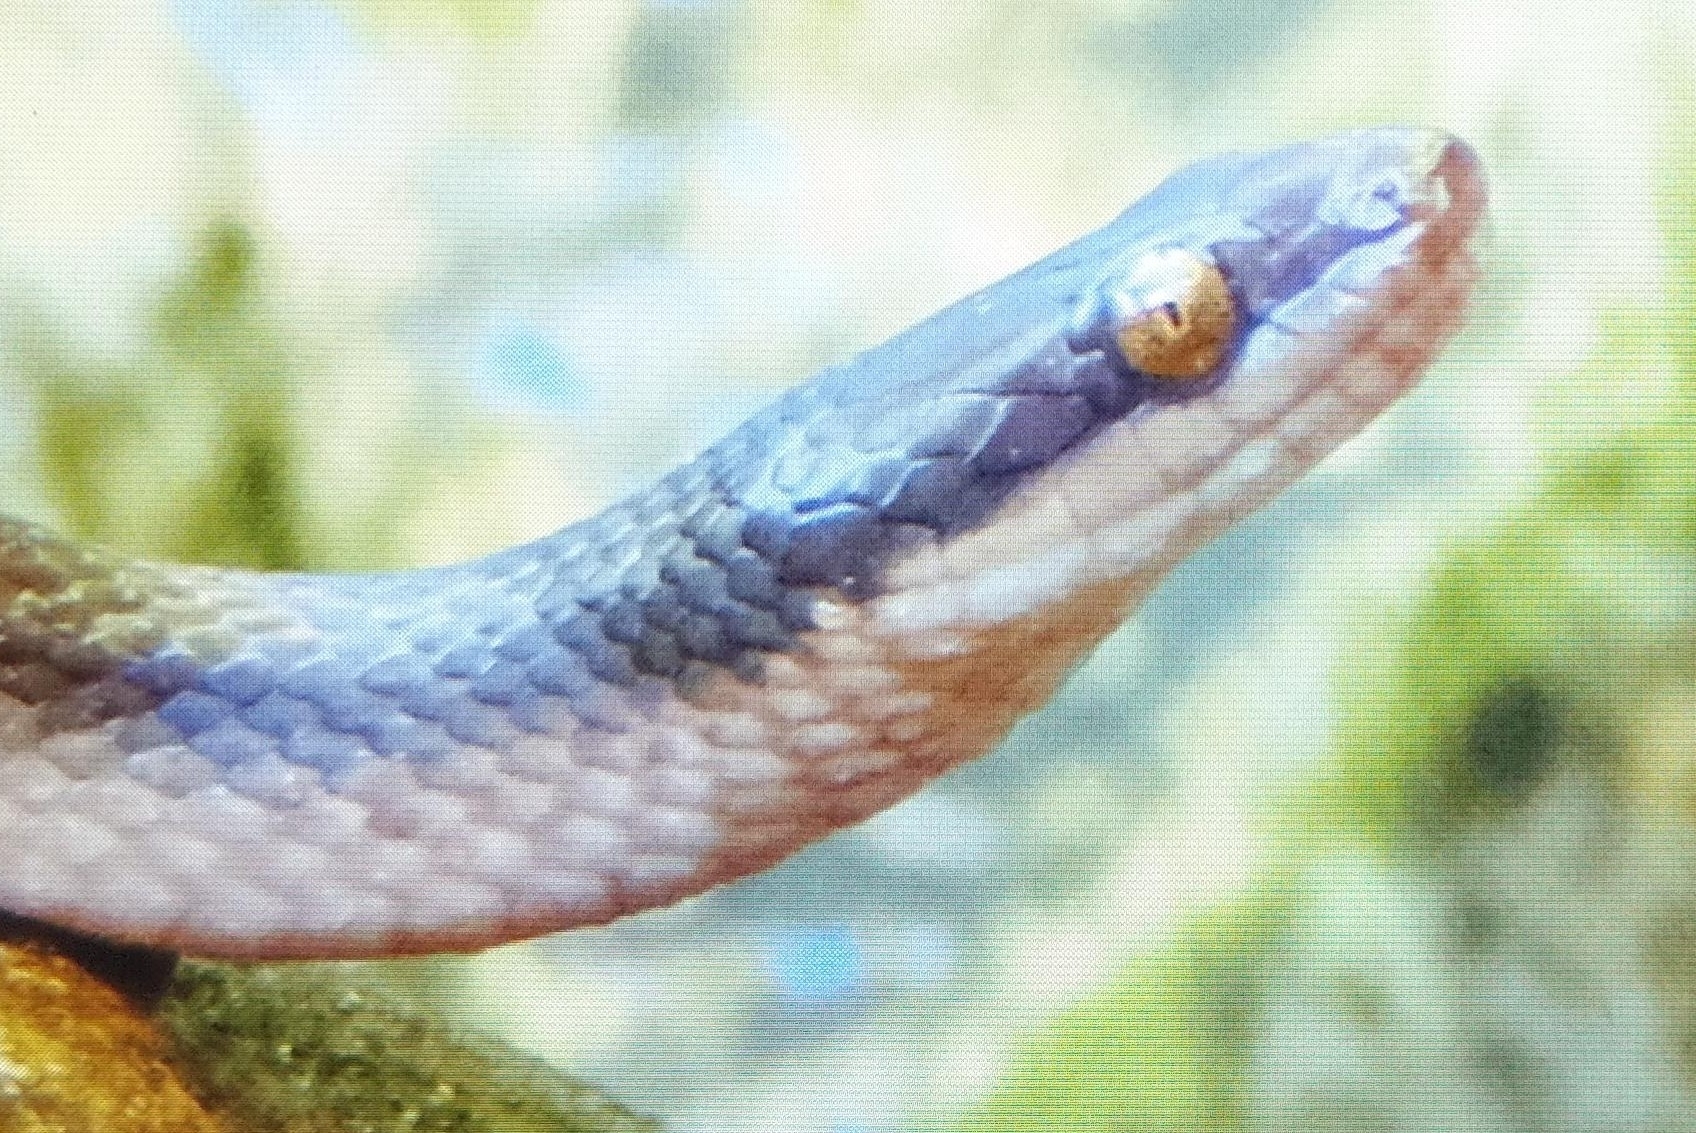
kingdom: Animalia
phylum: Chordata
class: Squamata
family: Lamprophiidae
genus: Lycodonomorphus
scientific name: Lycodonomorphus rufulus
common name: Brown water snake
